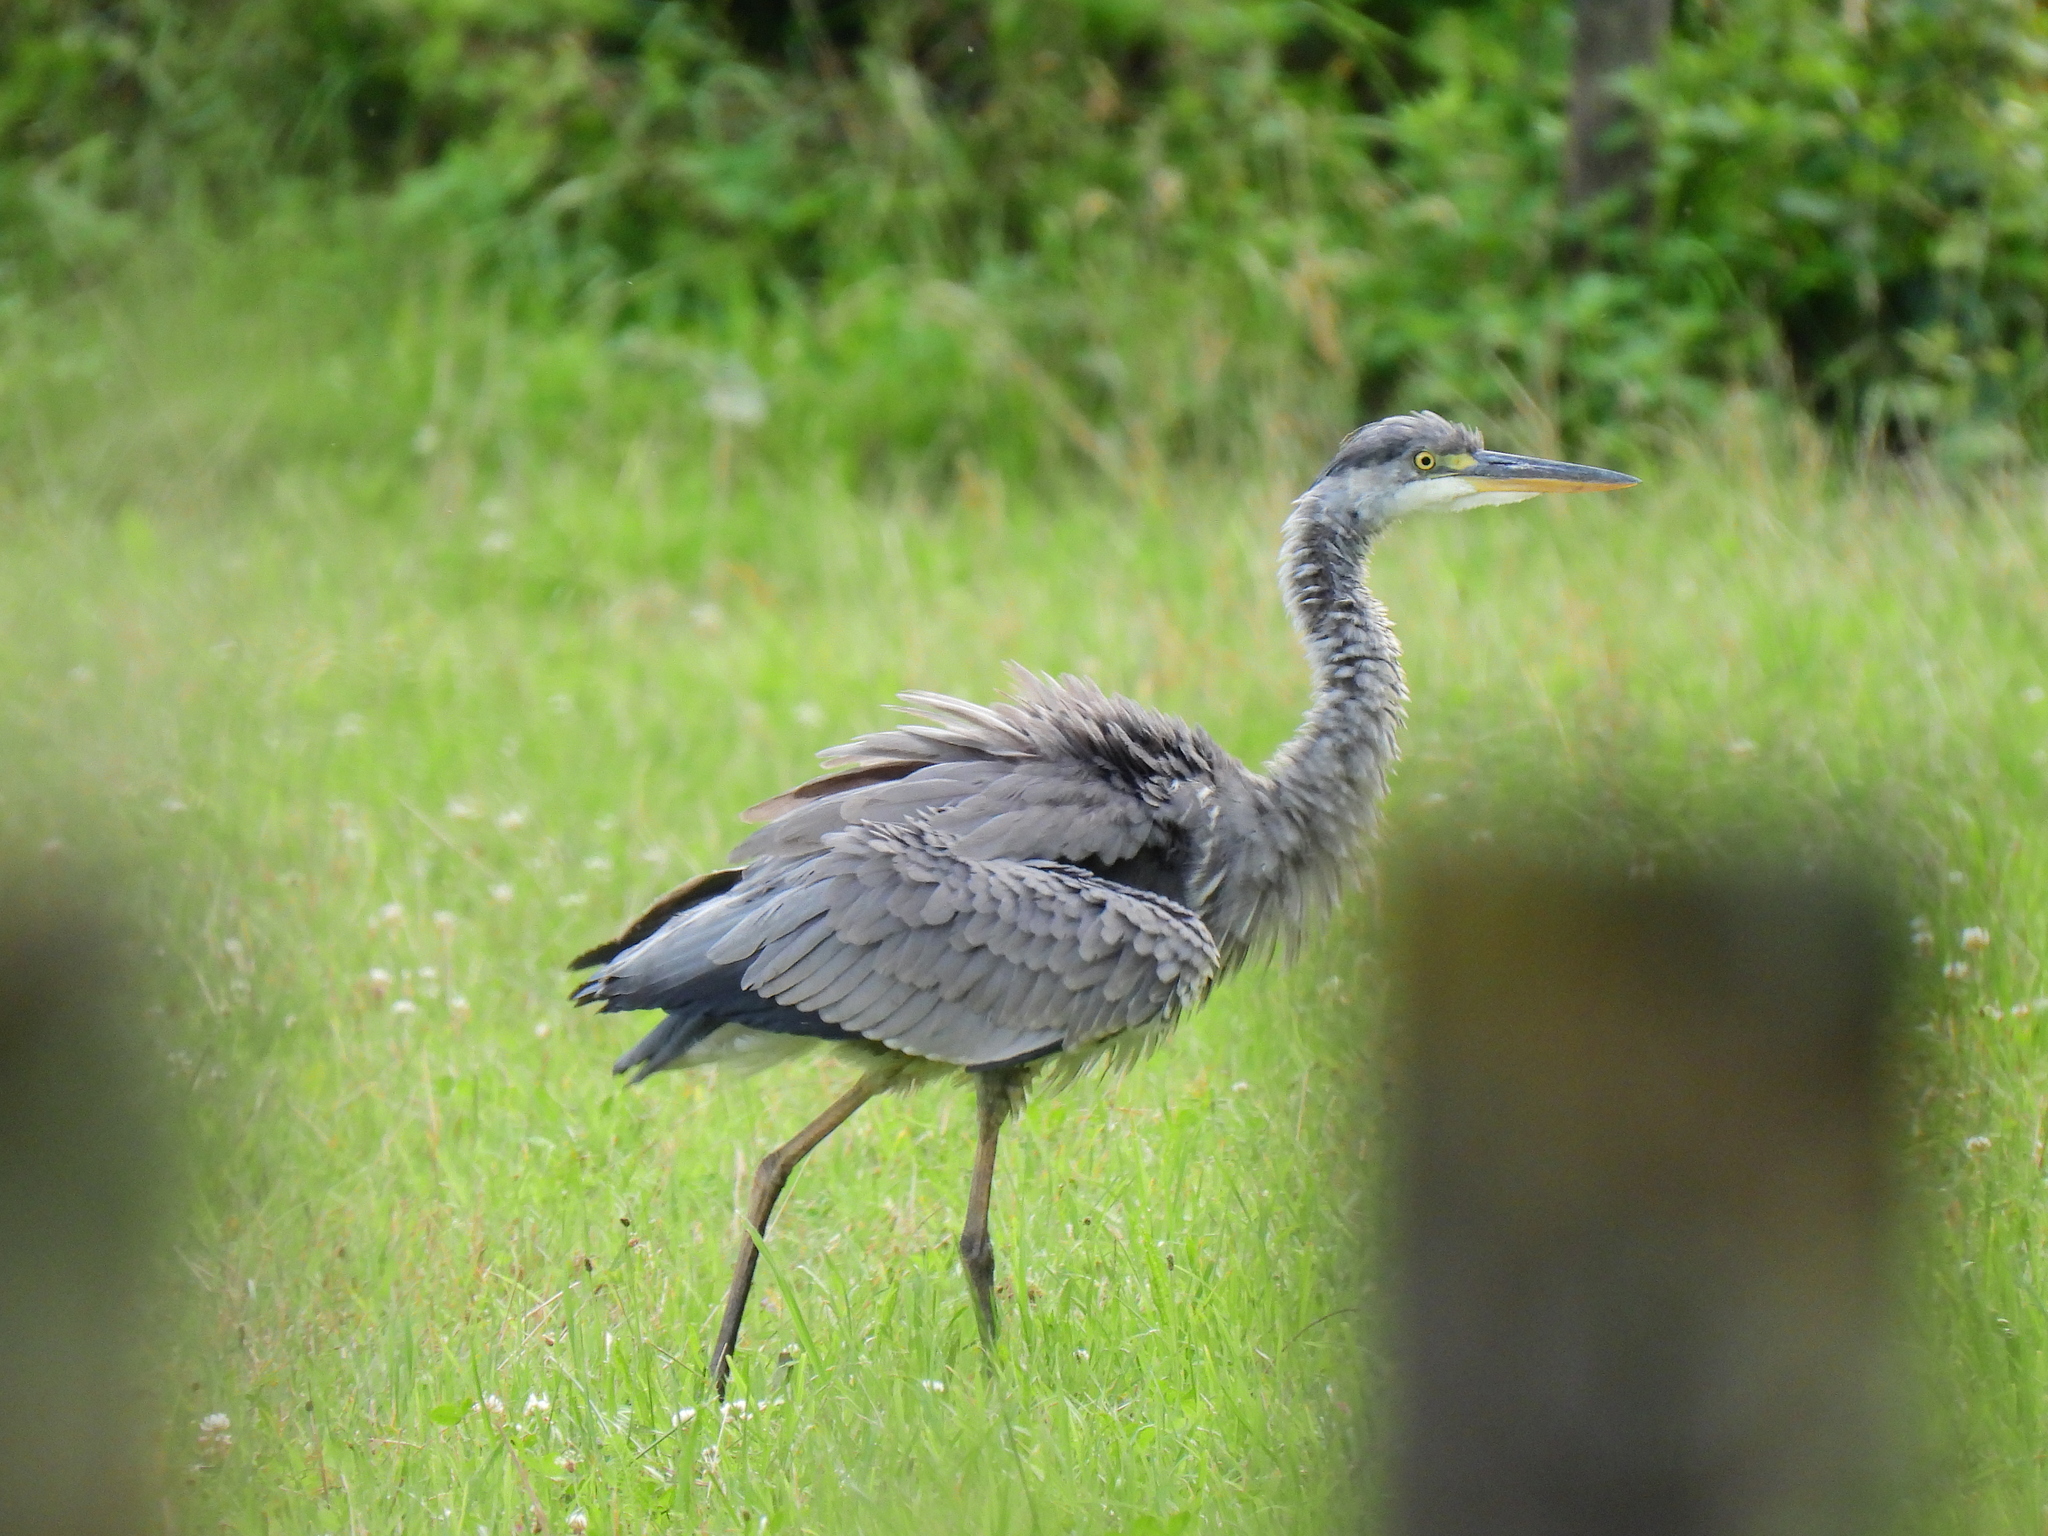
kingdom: Animalia
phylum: Chordata
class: Aves
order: Pelecaniformes
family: Ardeidae
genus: Ardea
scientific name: Ardea cinerea
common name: Grey heron
